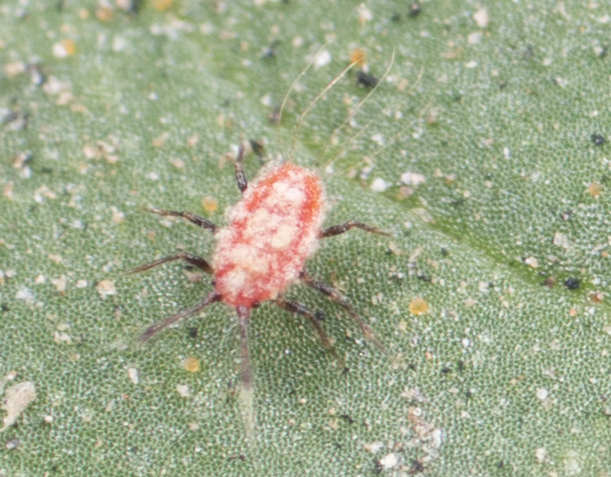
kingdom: Animalia
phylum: Arthropoda
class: Insecta
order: Hemiptera
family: Margarodidae
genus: Icerya
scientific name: Icerya purchasi
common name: Cottony cushion scale
